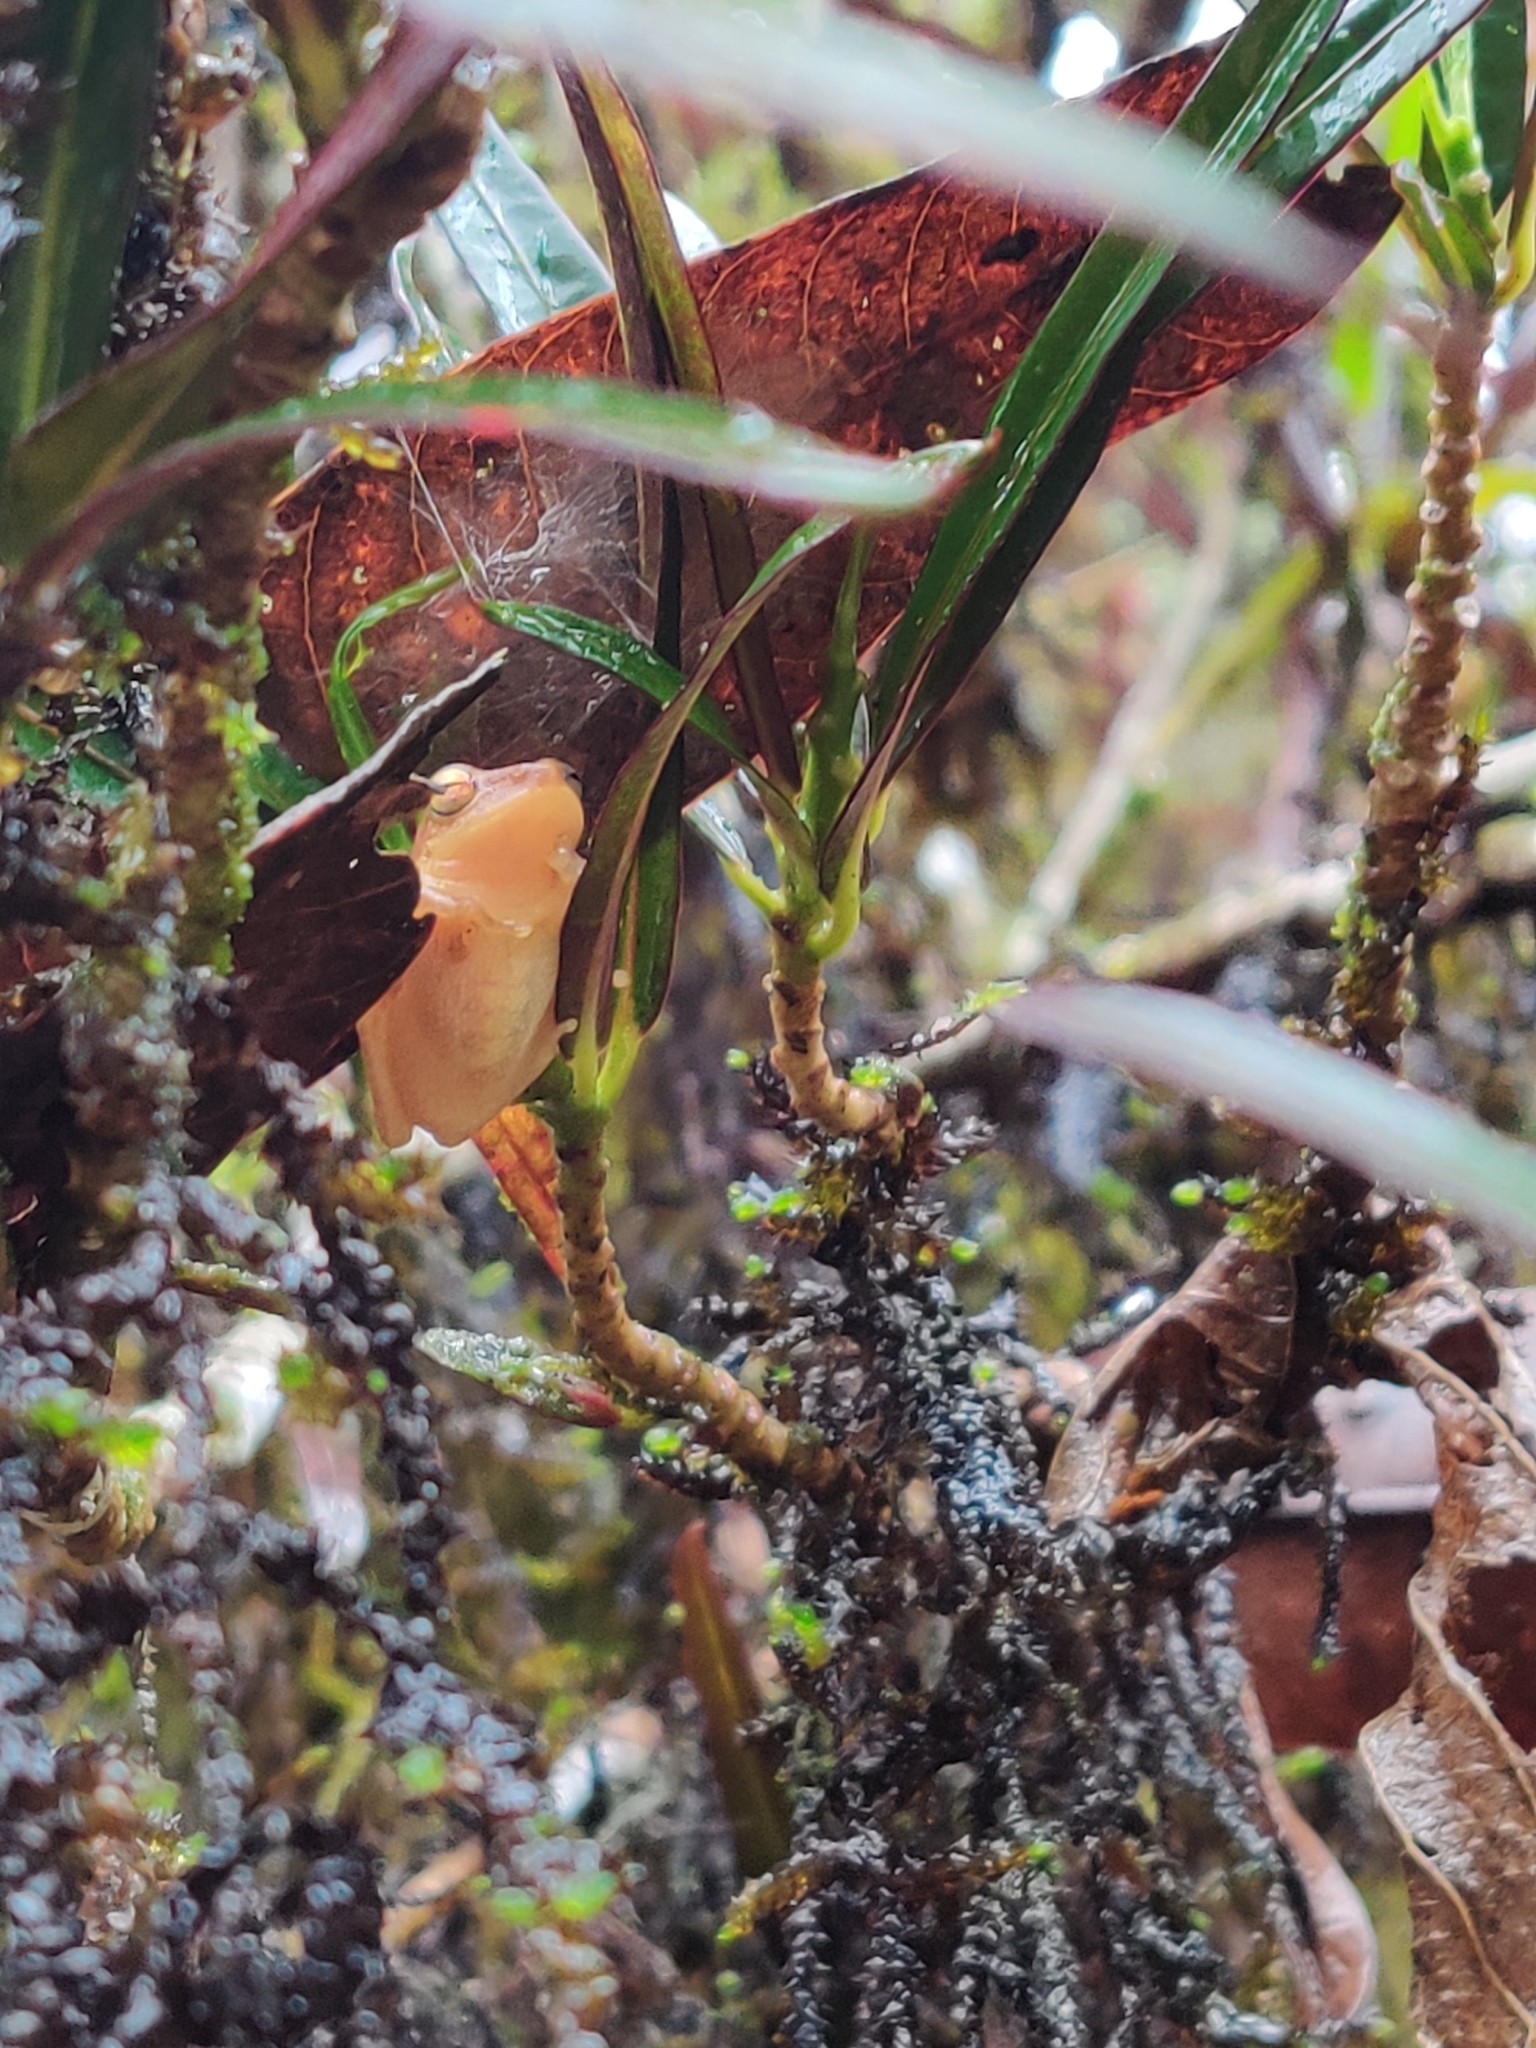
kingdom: Animalia
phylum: Chordata
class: Amphibia
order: Anura
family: Rhacophoridae
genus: Raorchestes
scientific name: Raorchestes luteolus
